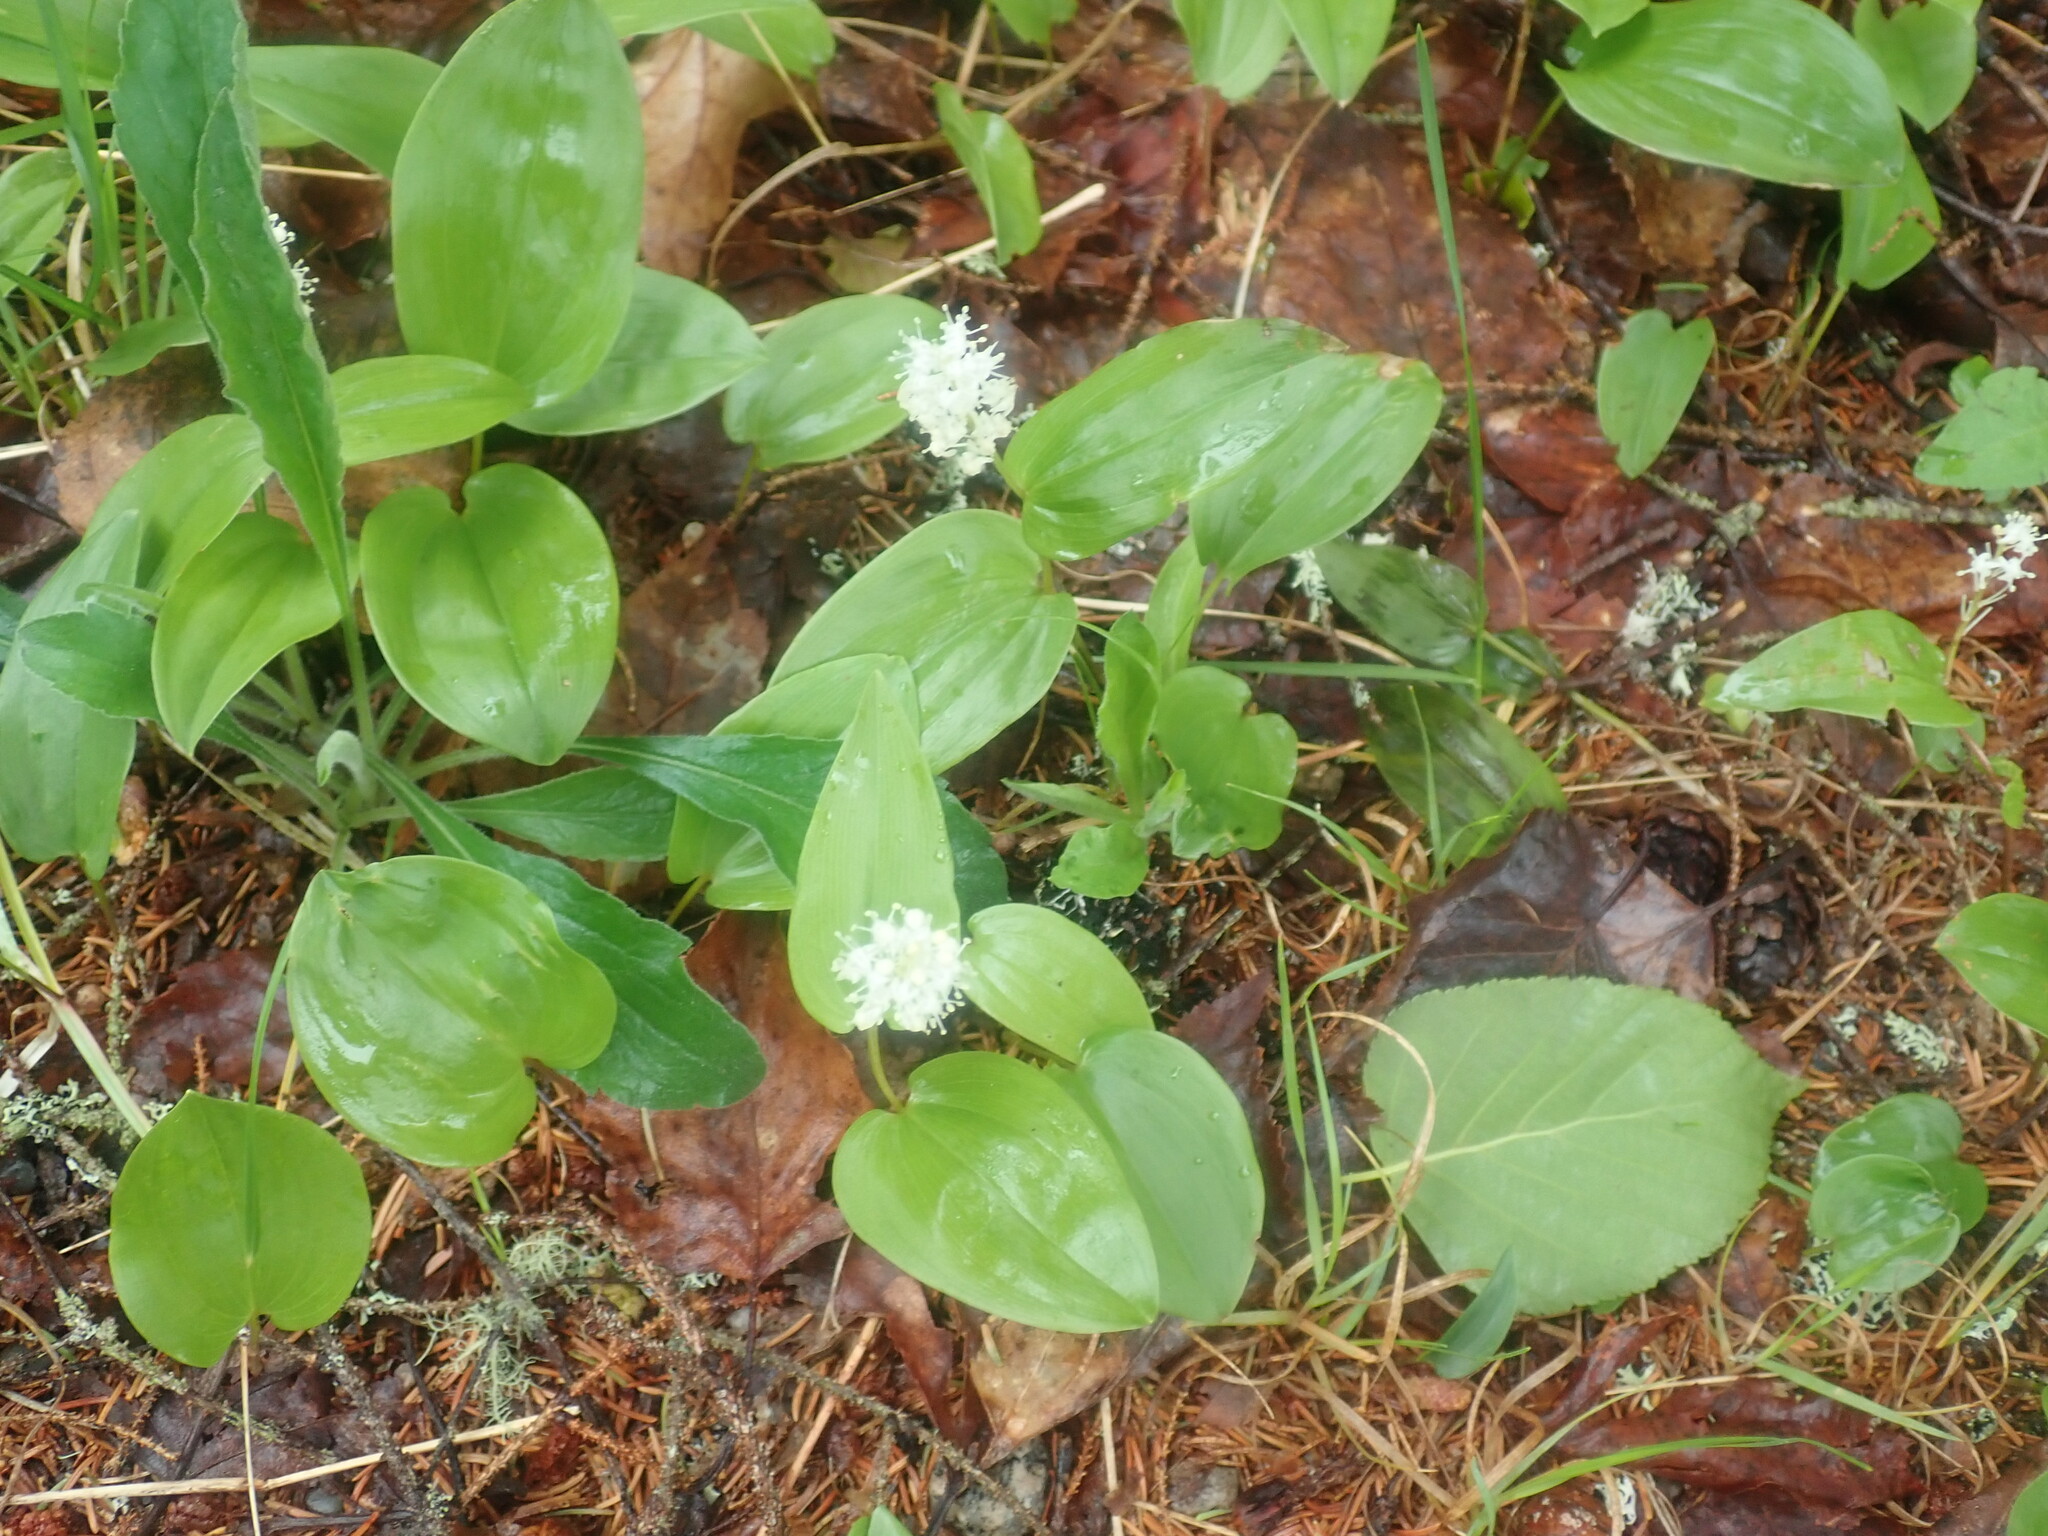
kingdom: Plantae
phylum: Tracheophyta
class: Liliopsida
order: Asparagales
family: Asparagaceae
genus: Maianthemum
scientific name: Maianthemum canadense
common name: False lily-of-the-valley
